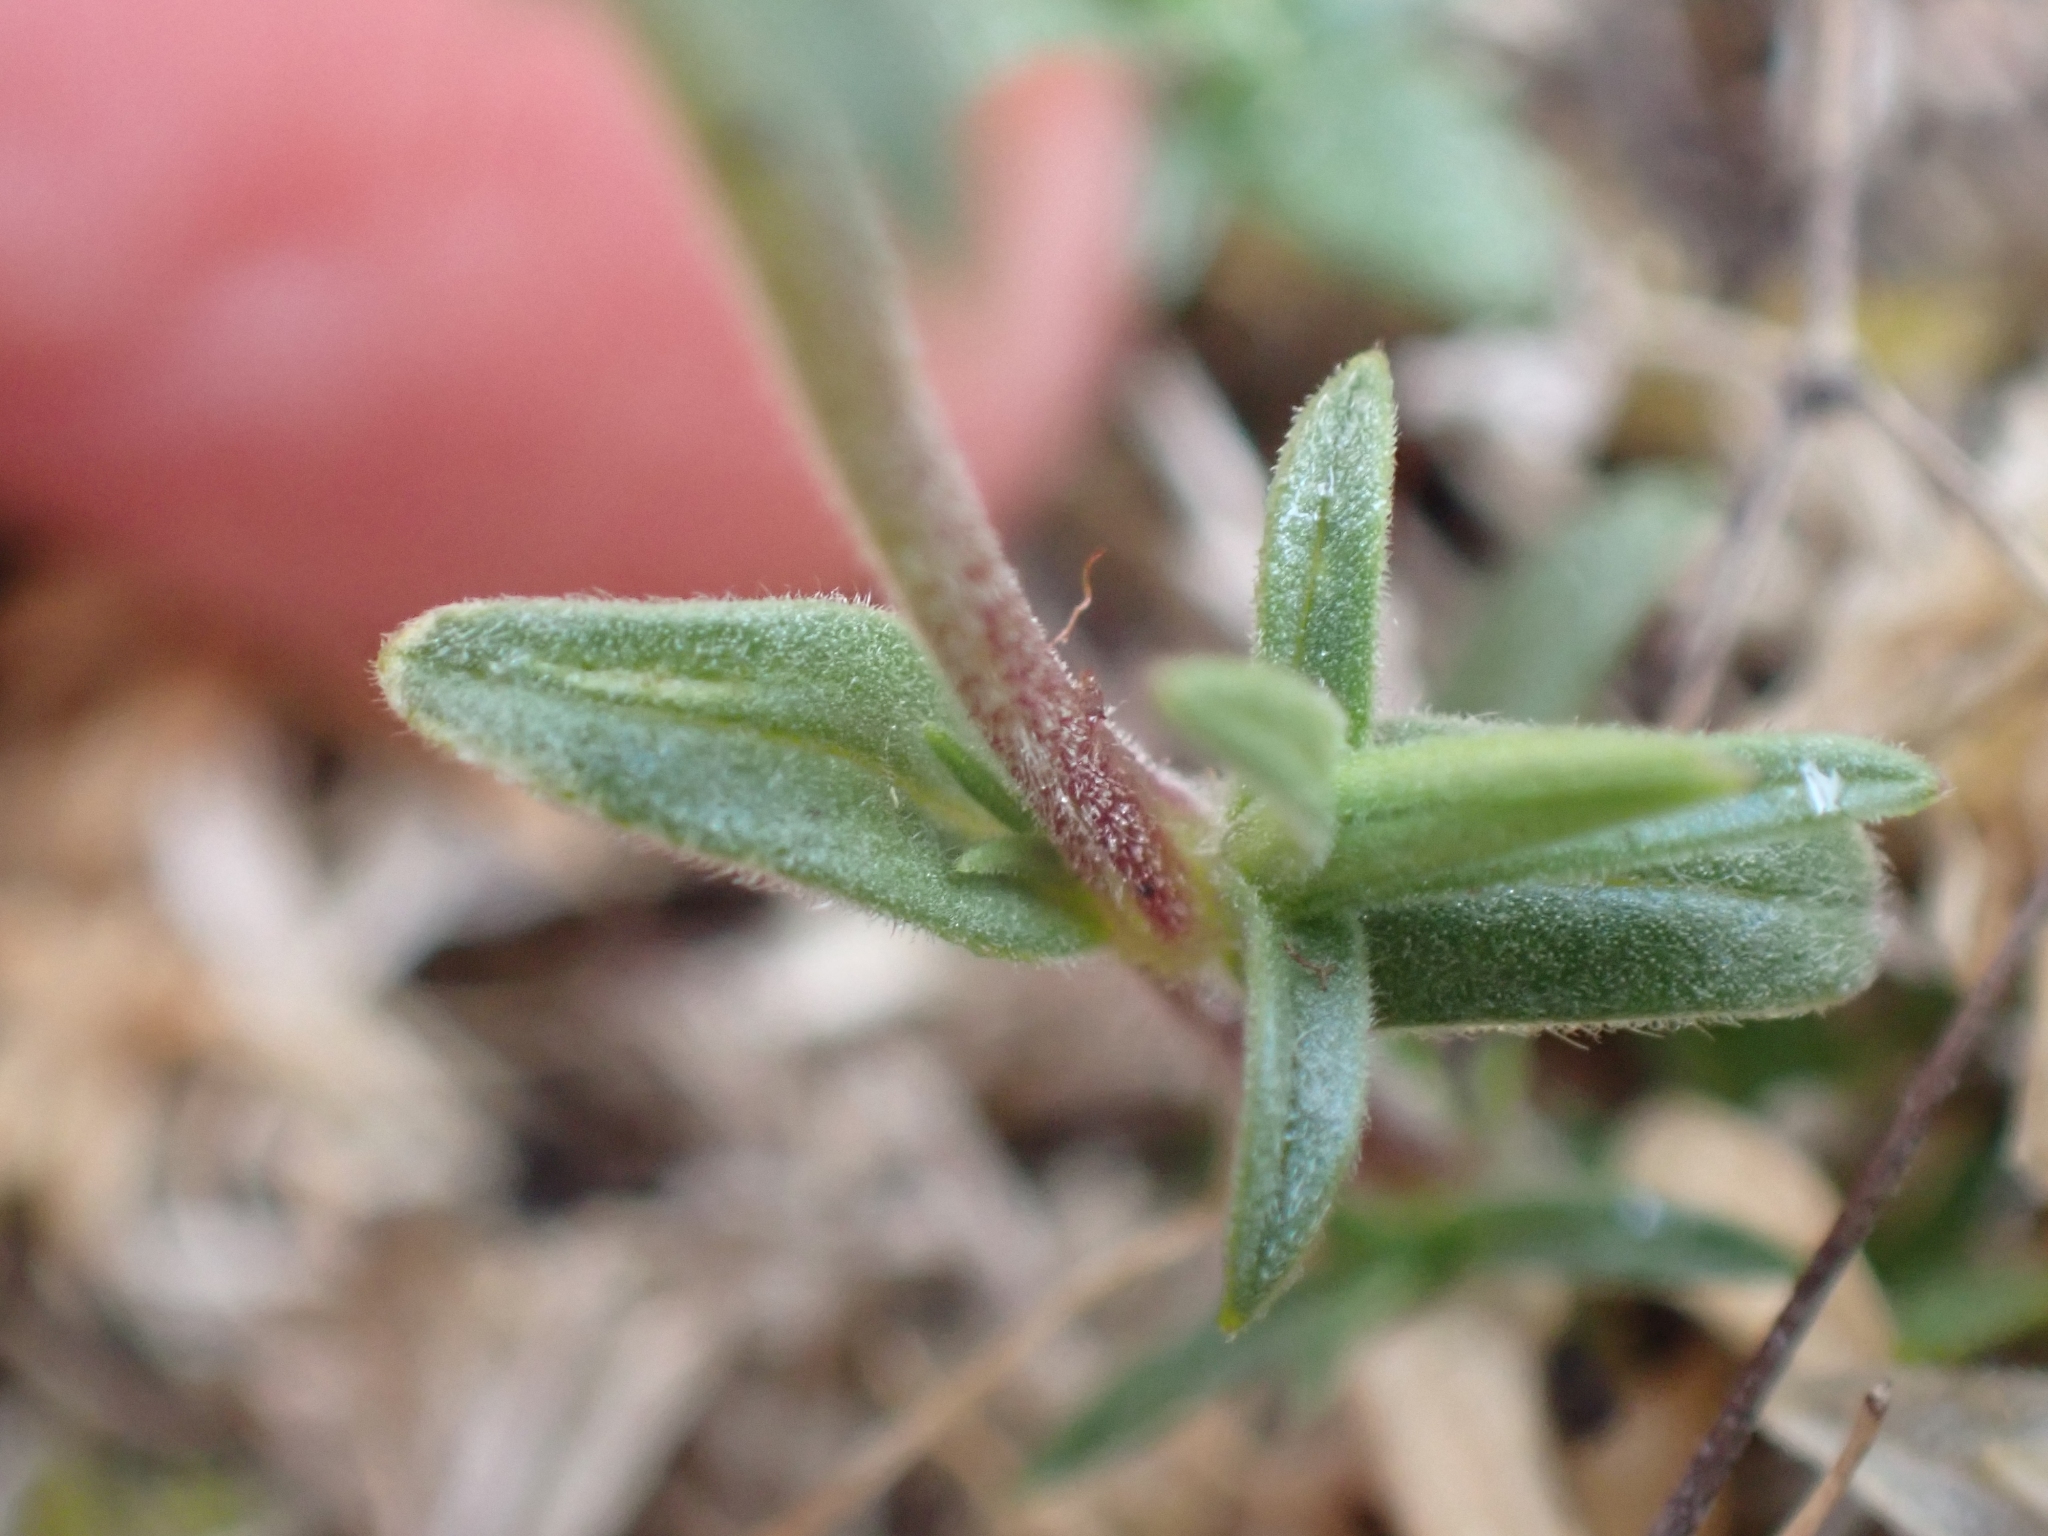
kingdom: Plantae
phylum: Tracheophyta
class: Magnoliopsida
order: Caryophyllales
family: Caryophyllaceae
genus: Cerastium
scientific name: Cerastium arvense
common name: Field mouse-ear
